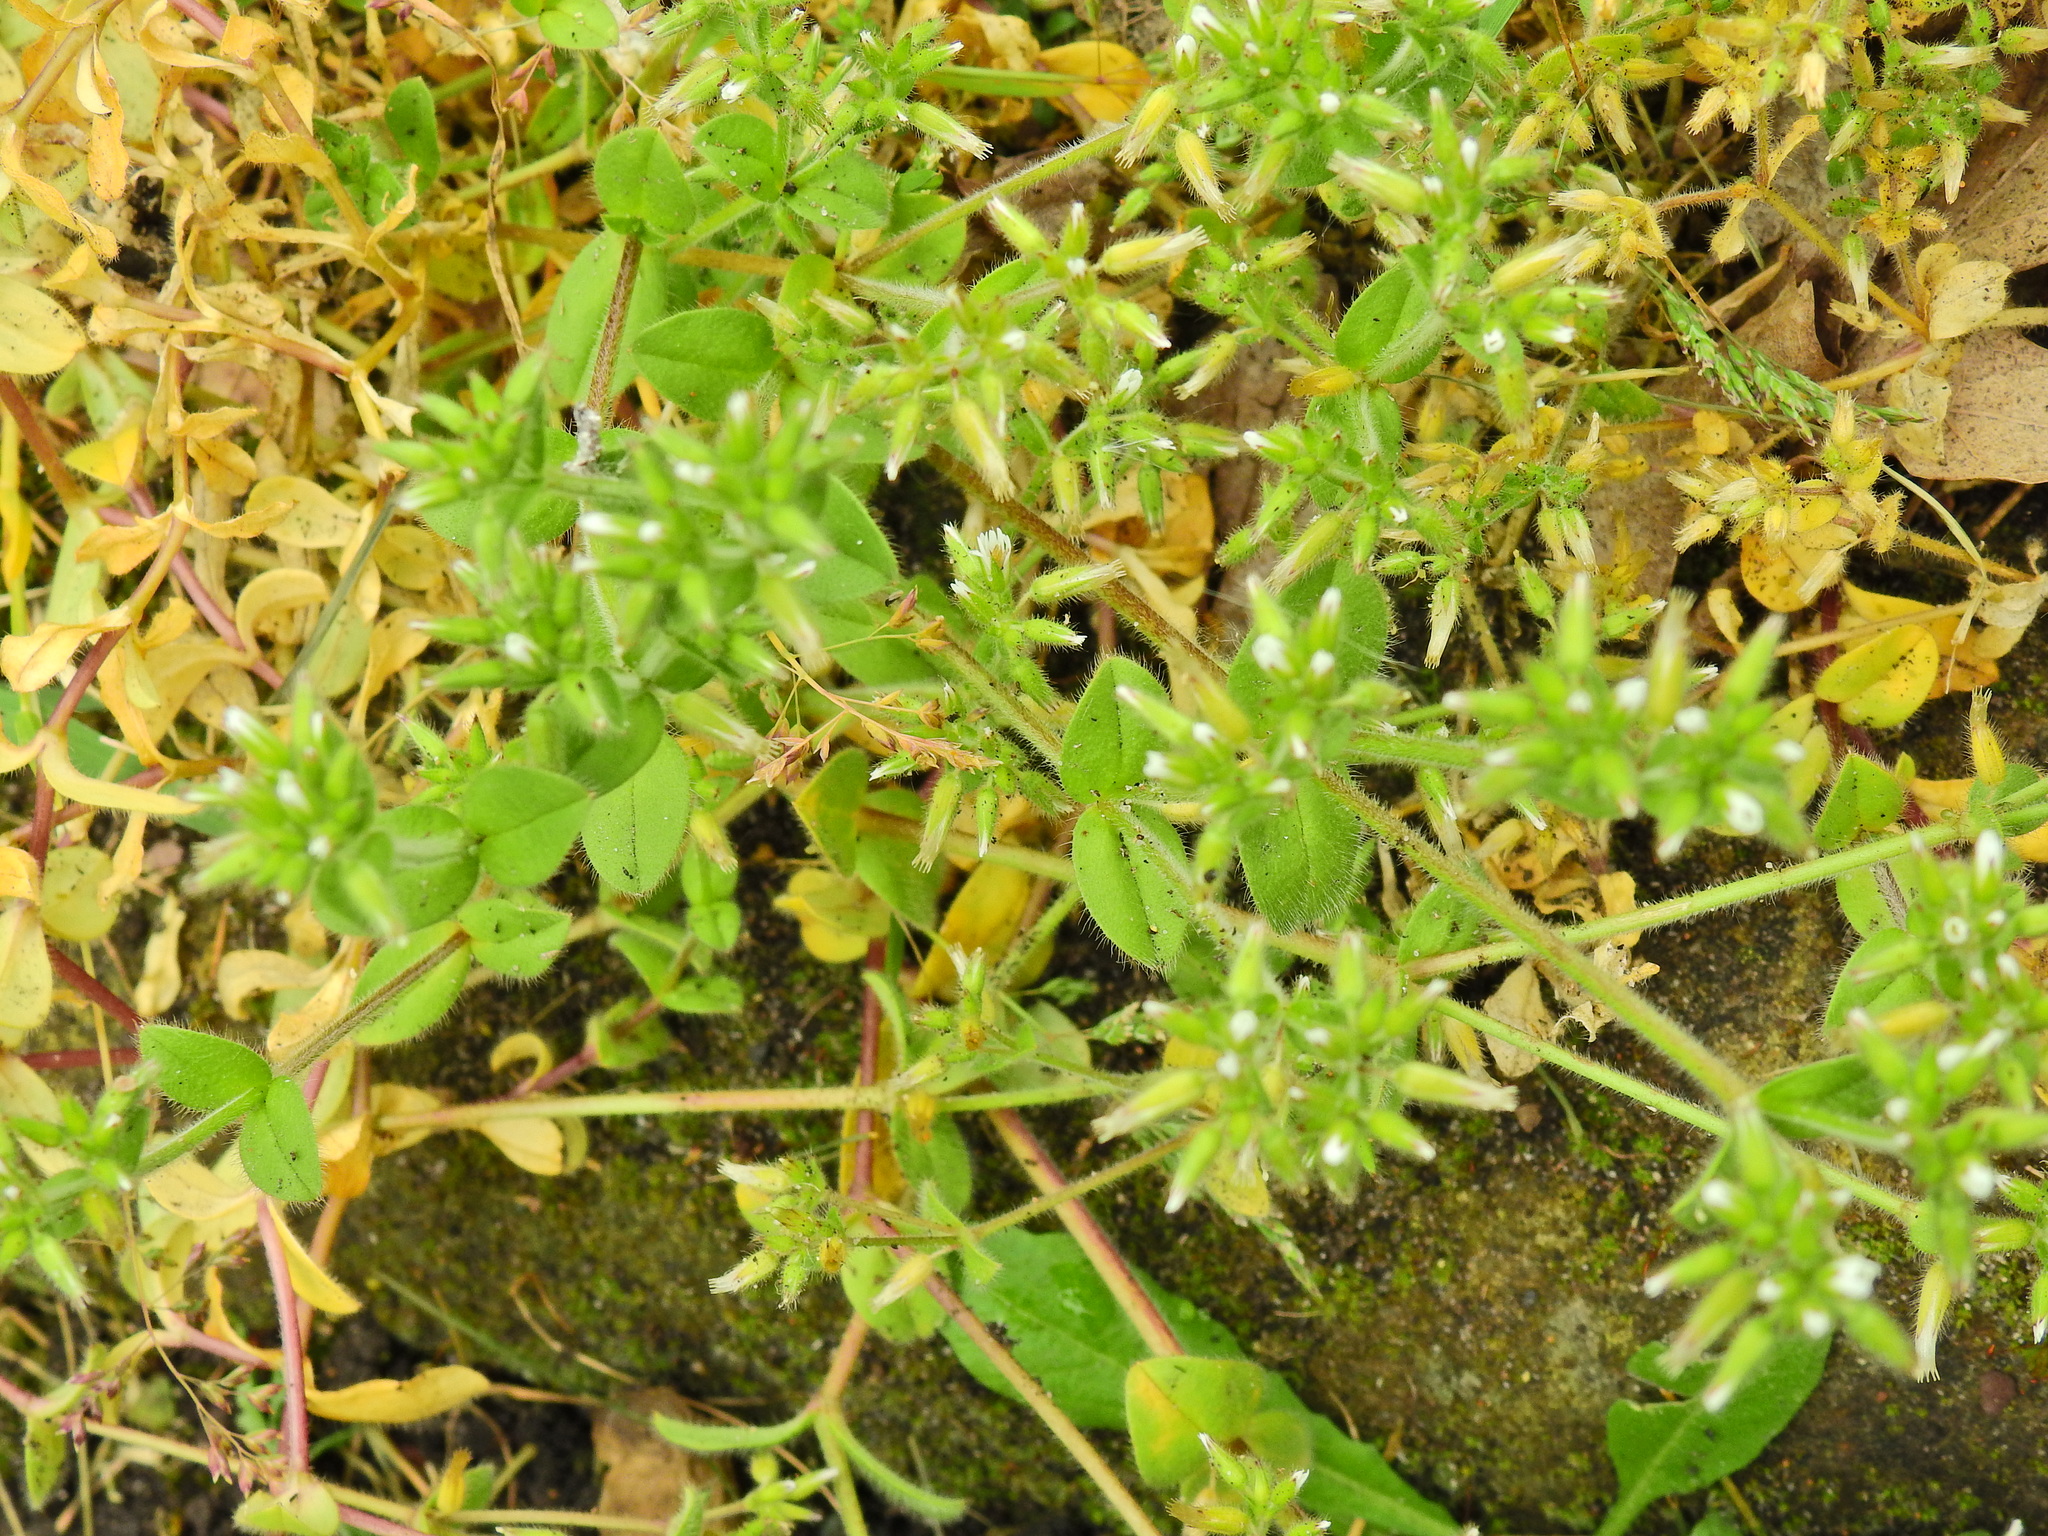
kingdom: Plantae
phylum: Tracheophyta
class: Magnoliopsida
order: Caryophyllales
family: Caryophyllaceae
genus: Cerastium
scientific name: Cerastium glomeratum
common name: Sticky chickweed
